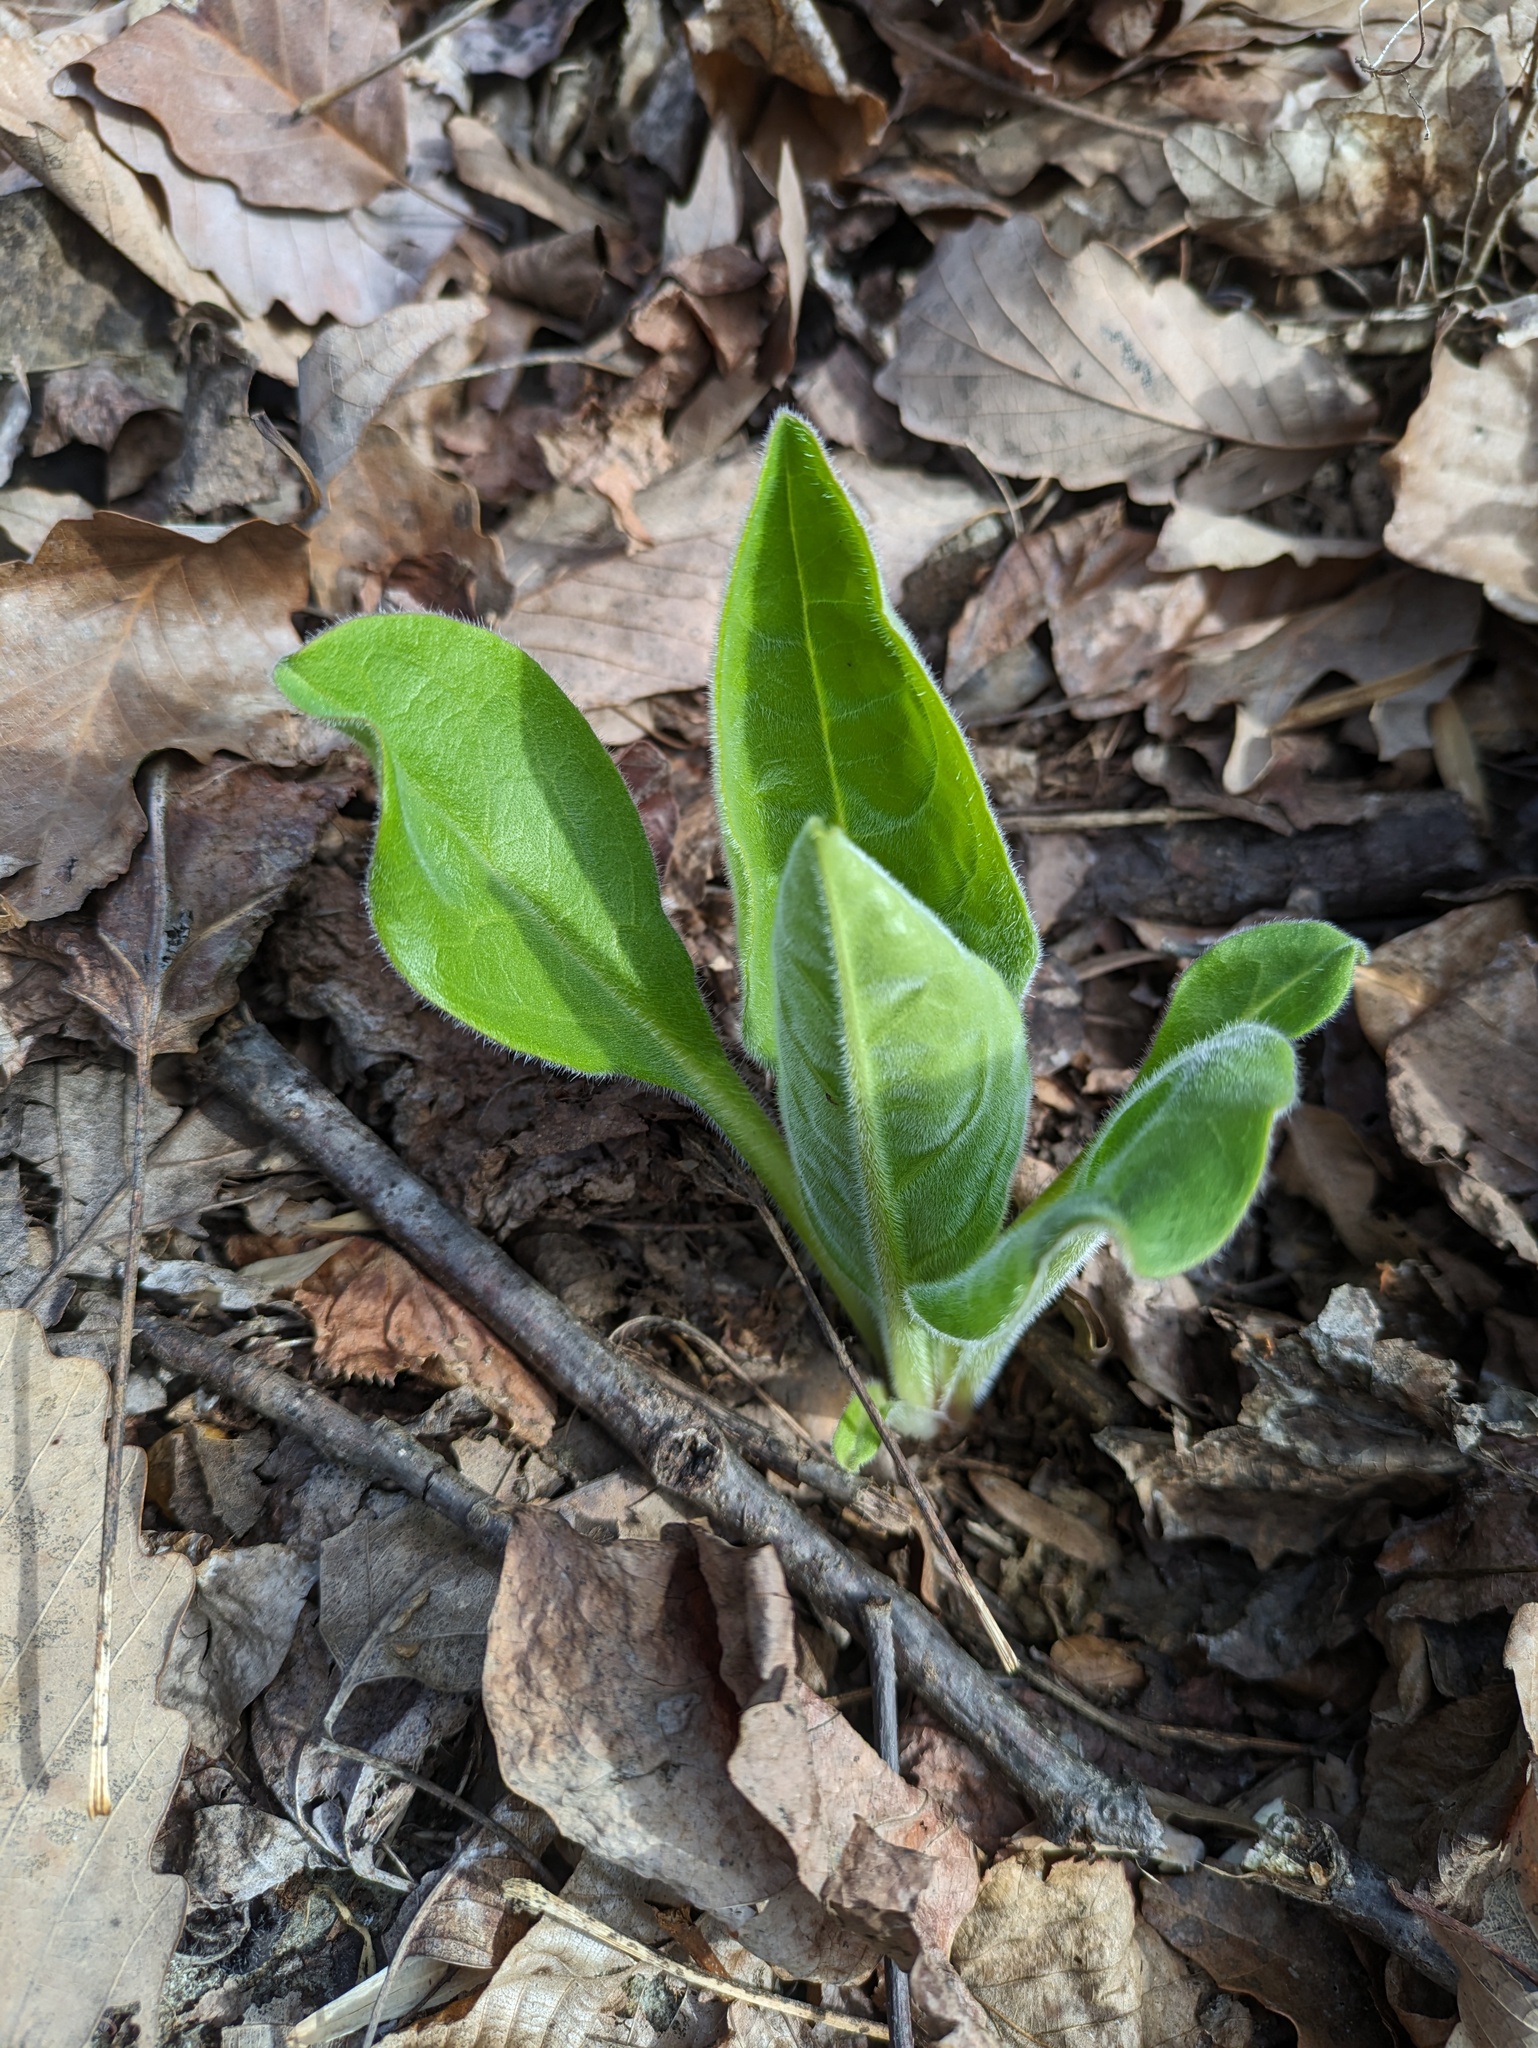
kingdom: Plantae
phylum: Tracheophyta
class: Magnoliopsida
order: Boraginales
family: Boraginaceae
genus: Andersonglossum
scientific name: Andersonglossum virginianum
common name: Wild comfrey
